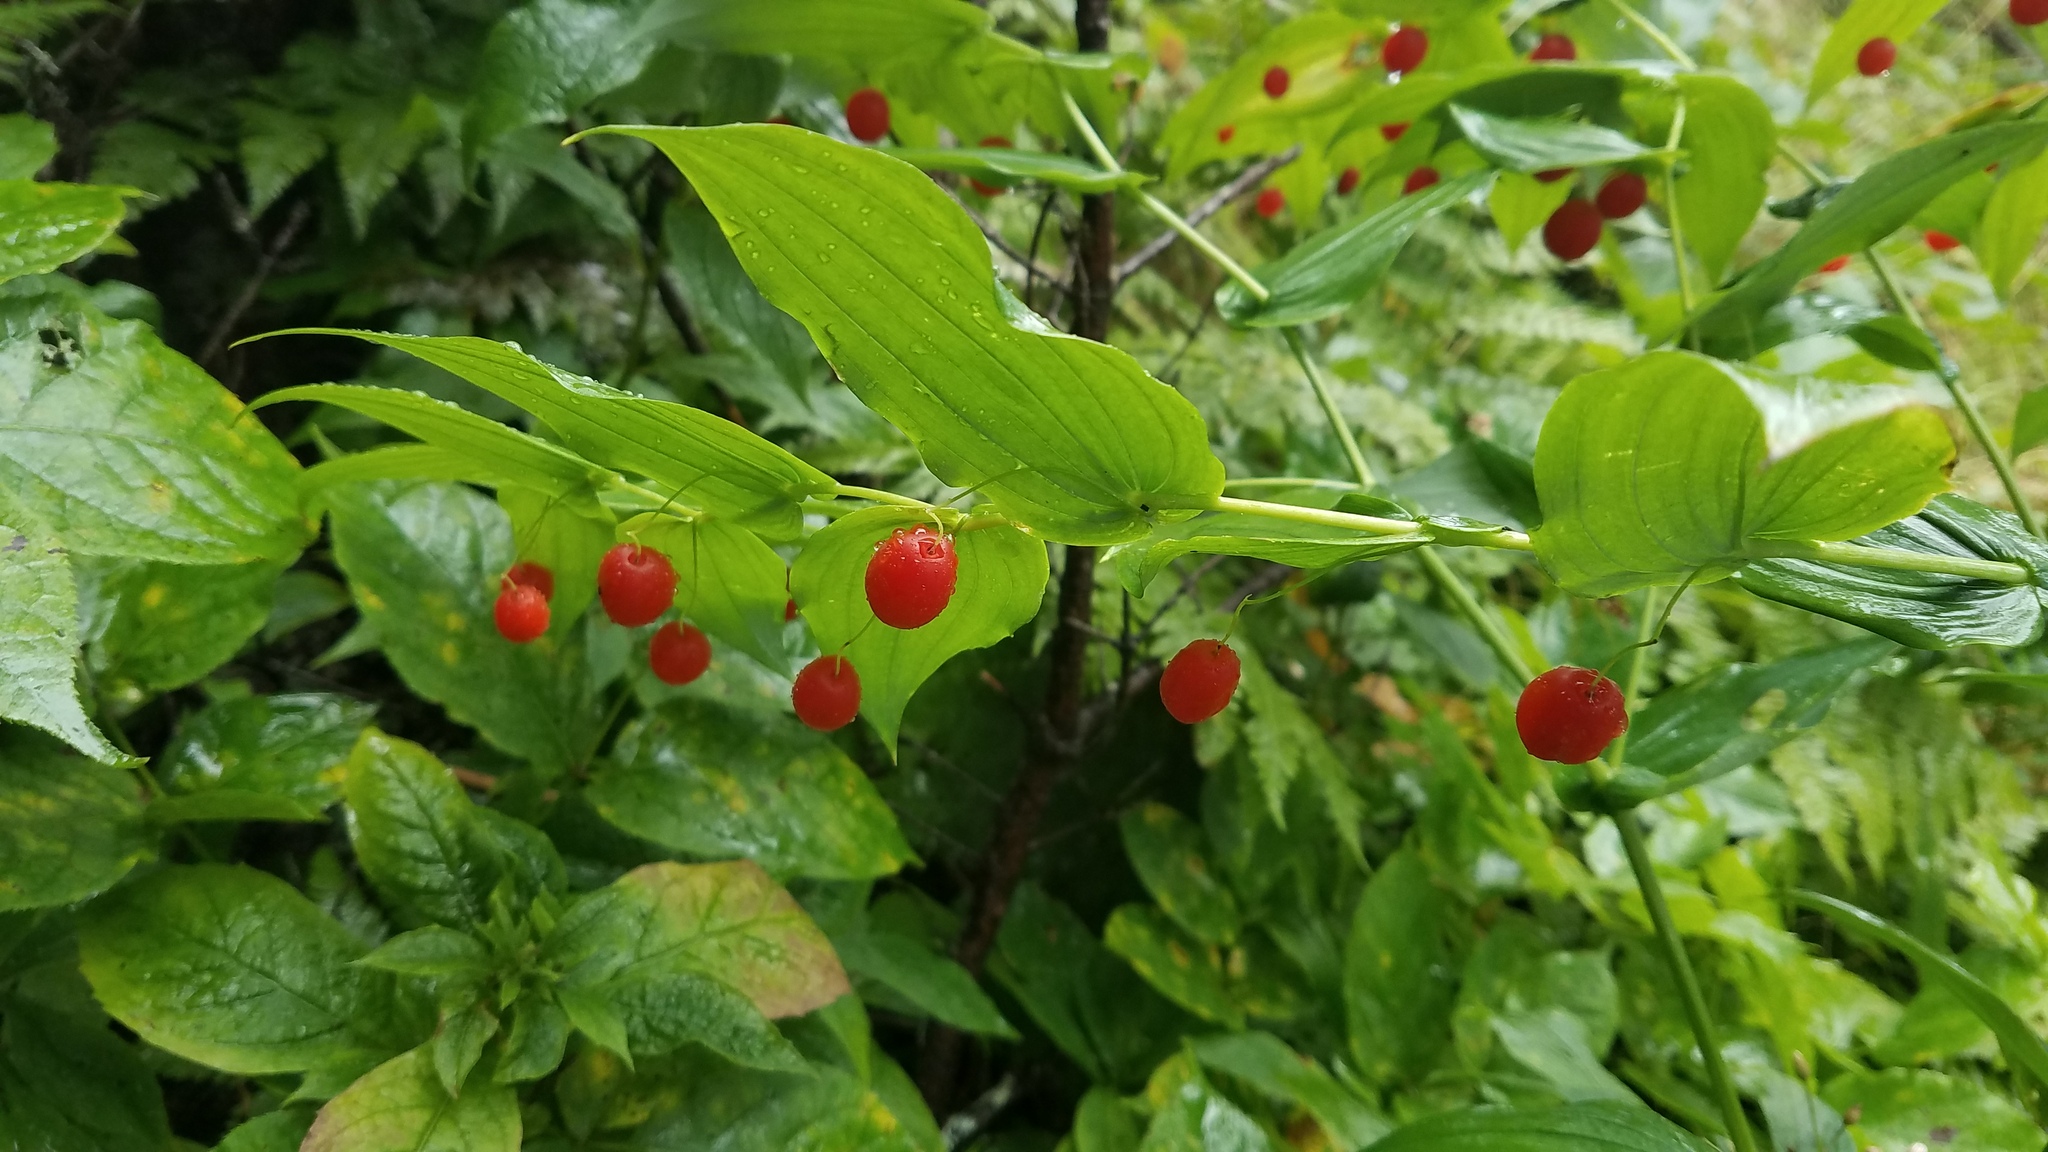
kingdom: Plantae
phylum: Tracheophyta
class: Liliopsida
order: Liliales
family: Liliaceae
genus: Streptopus
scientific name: Streptopus amplexifolius
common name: Clasp twisted stalk
